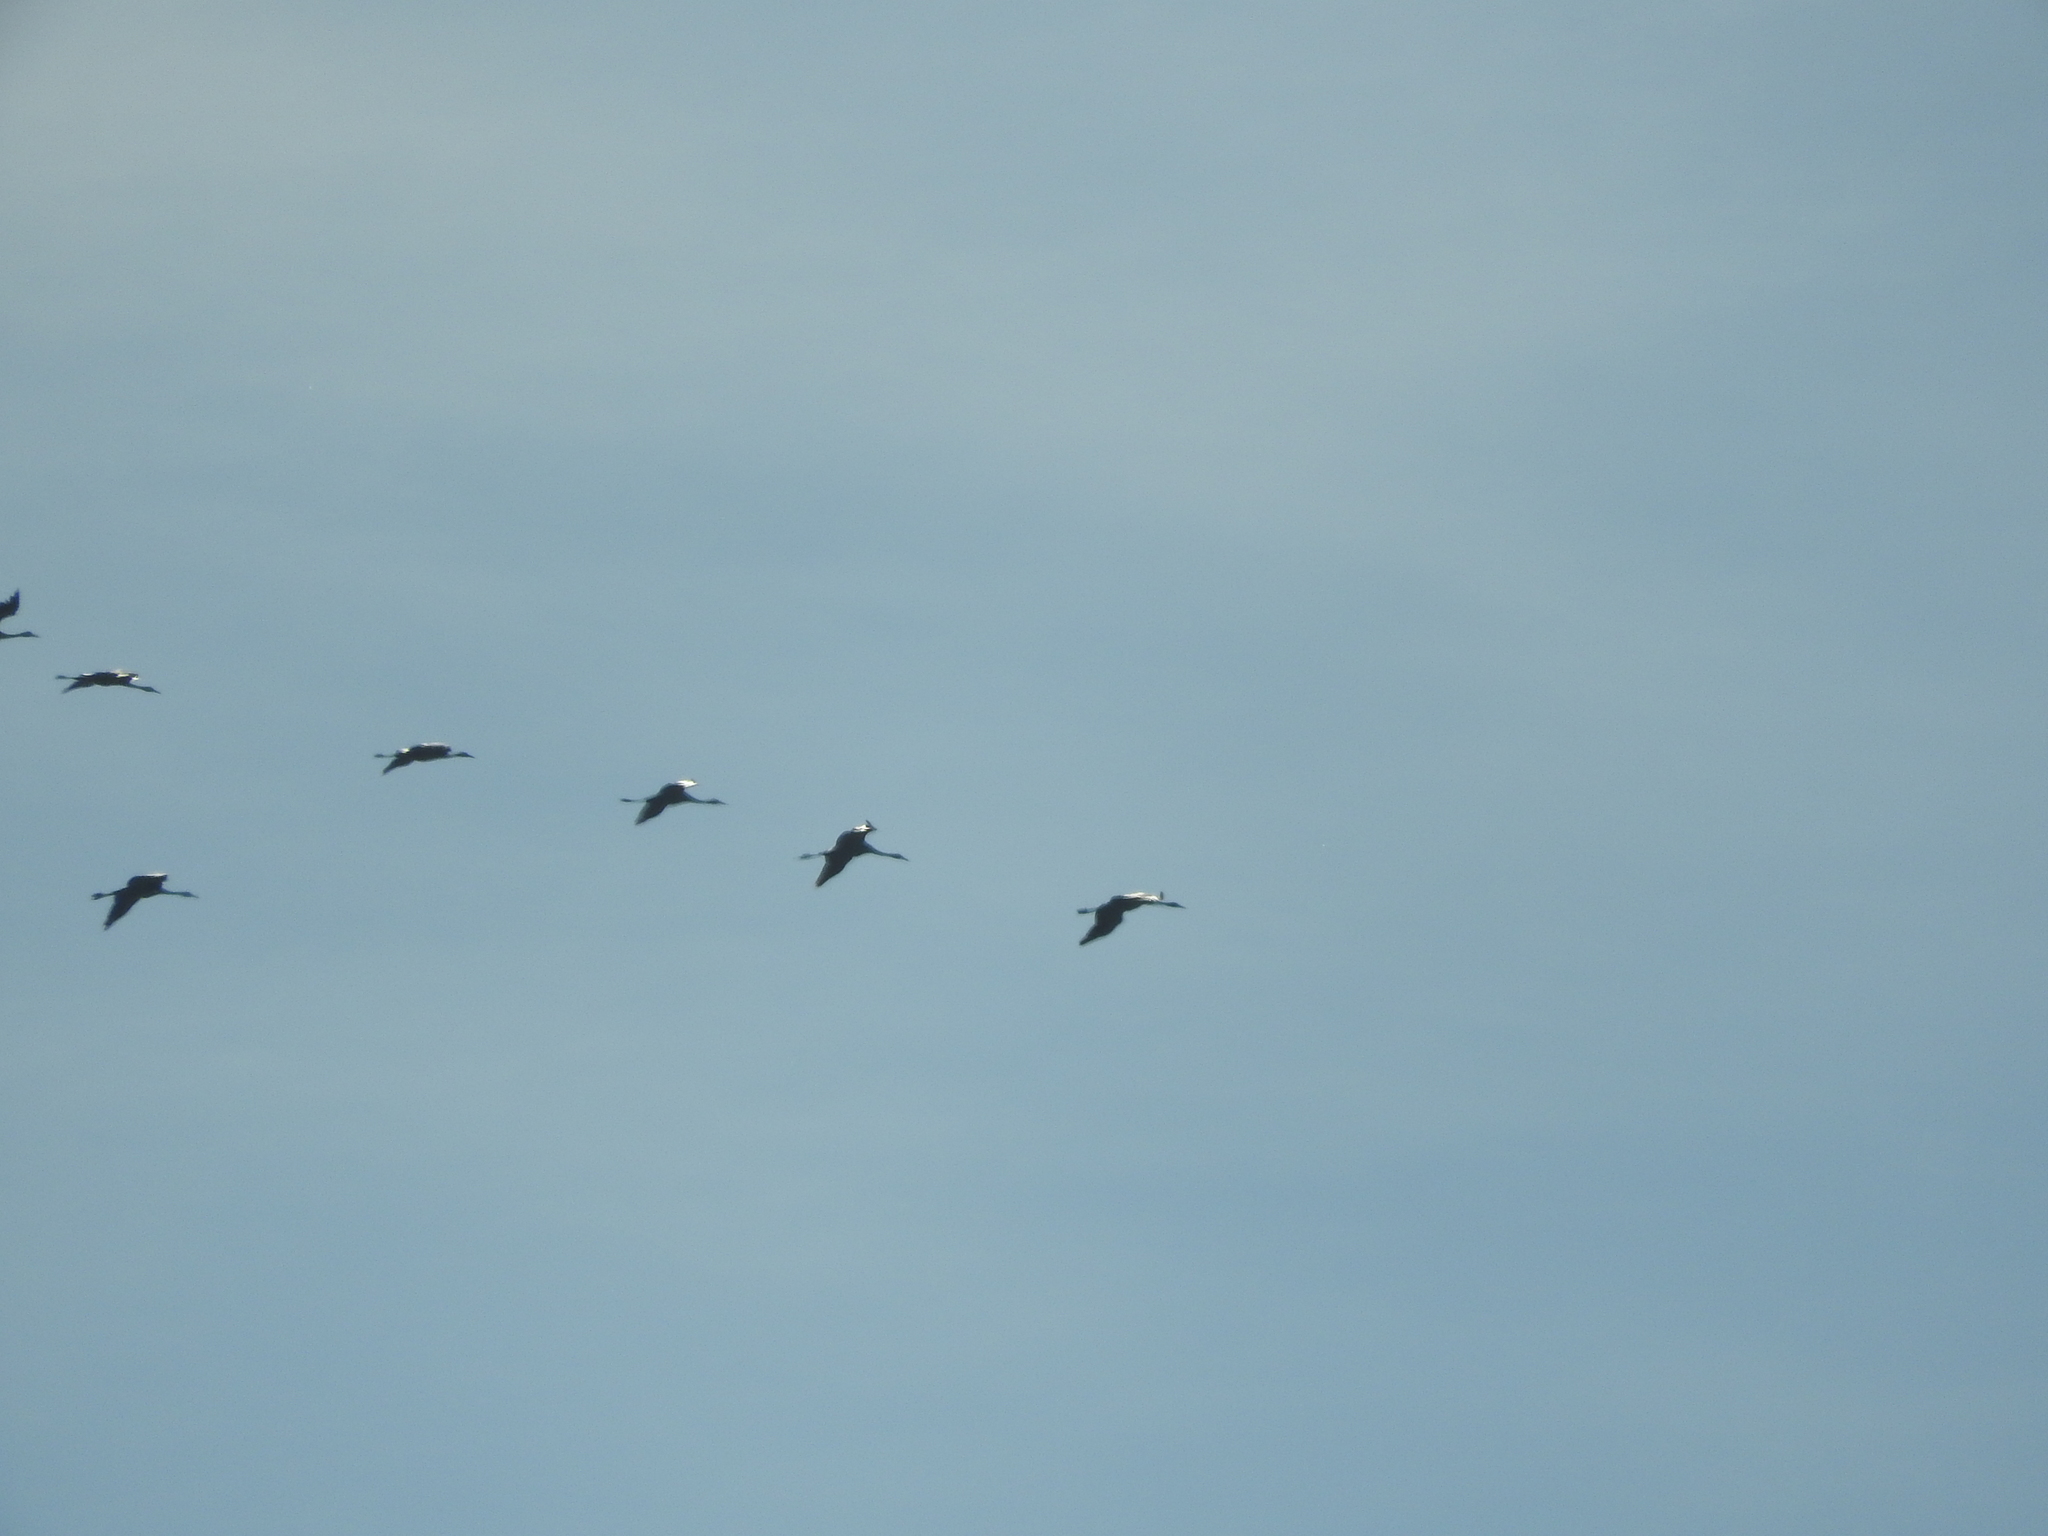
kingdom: Animalia
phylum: Chordata
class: Aves
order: Gruiformes
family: Gruidae
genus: Grus
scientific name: Grus grus
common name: Common crane
